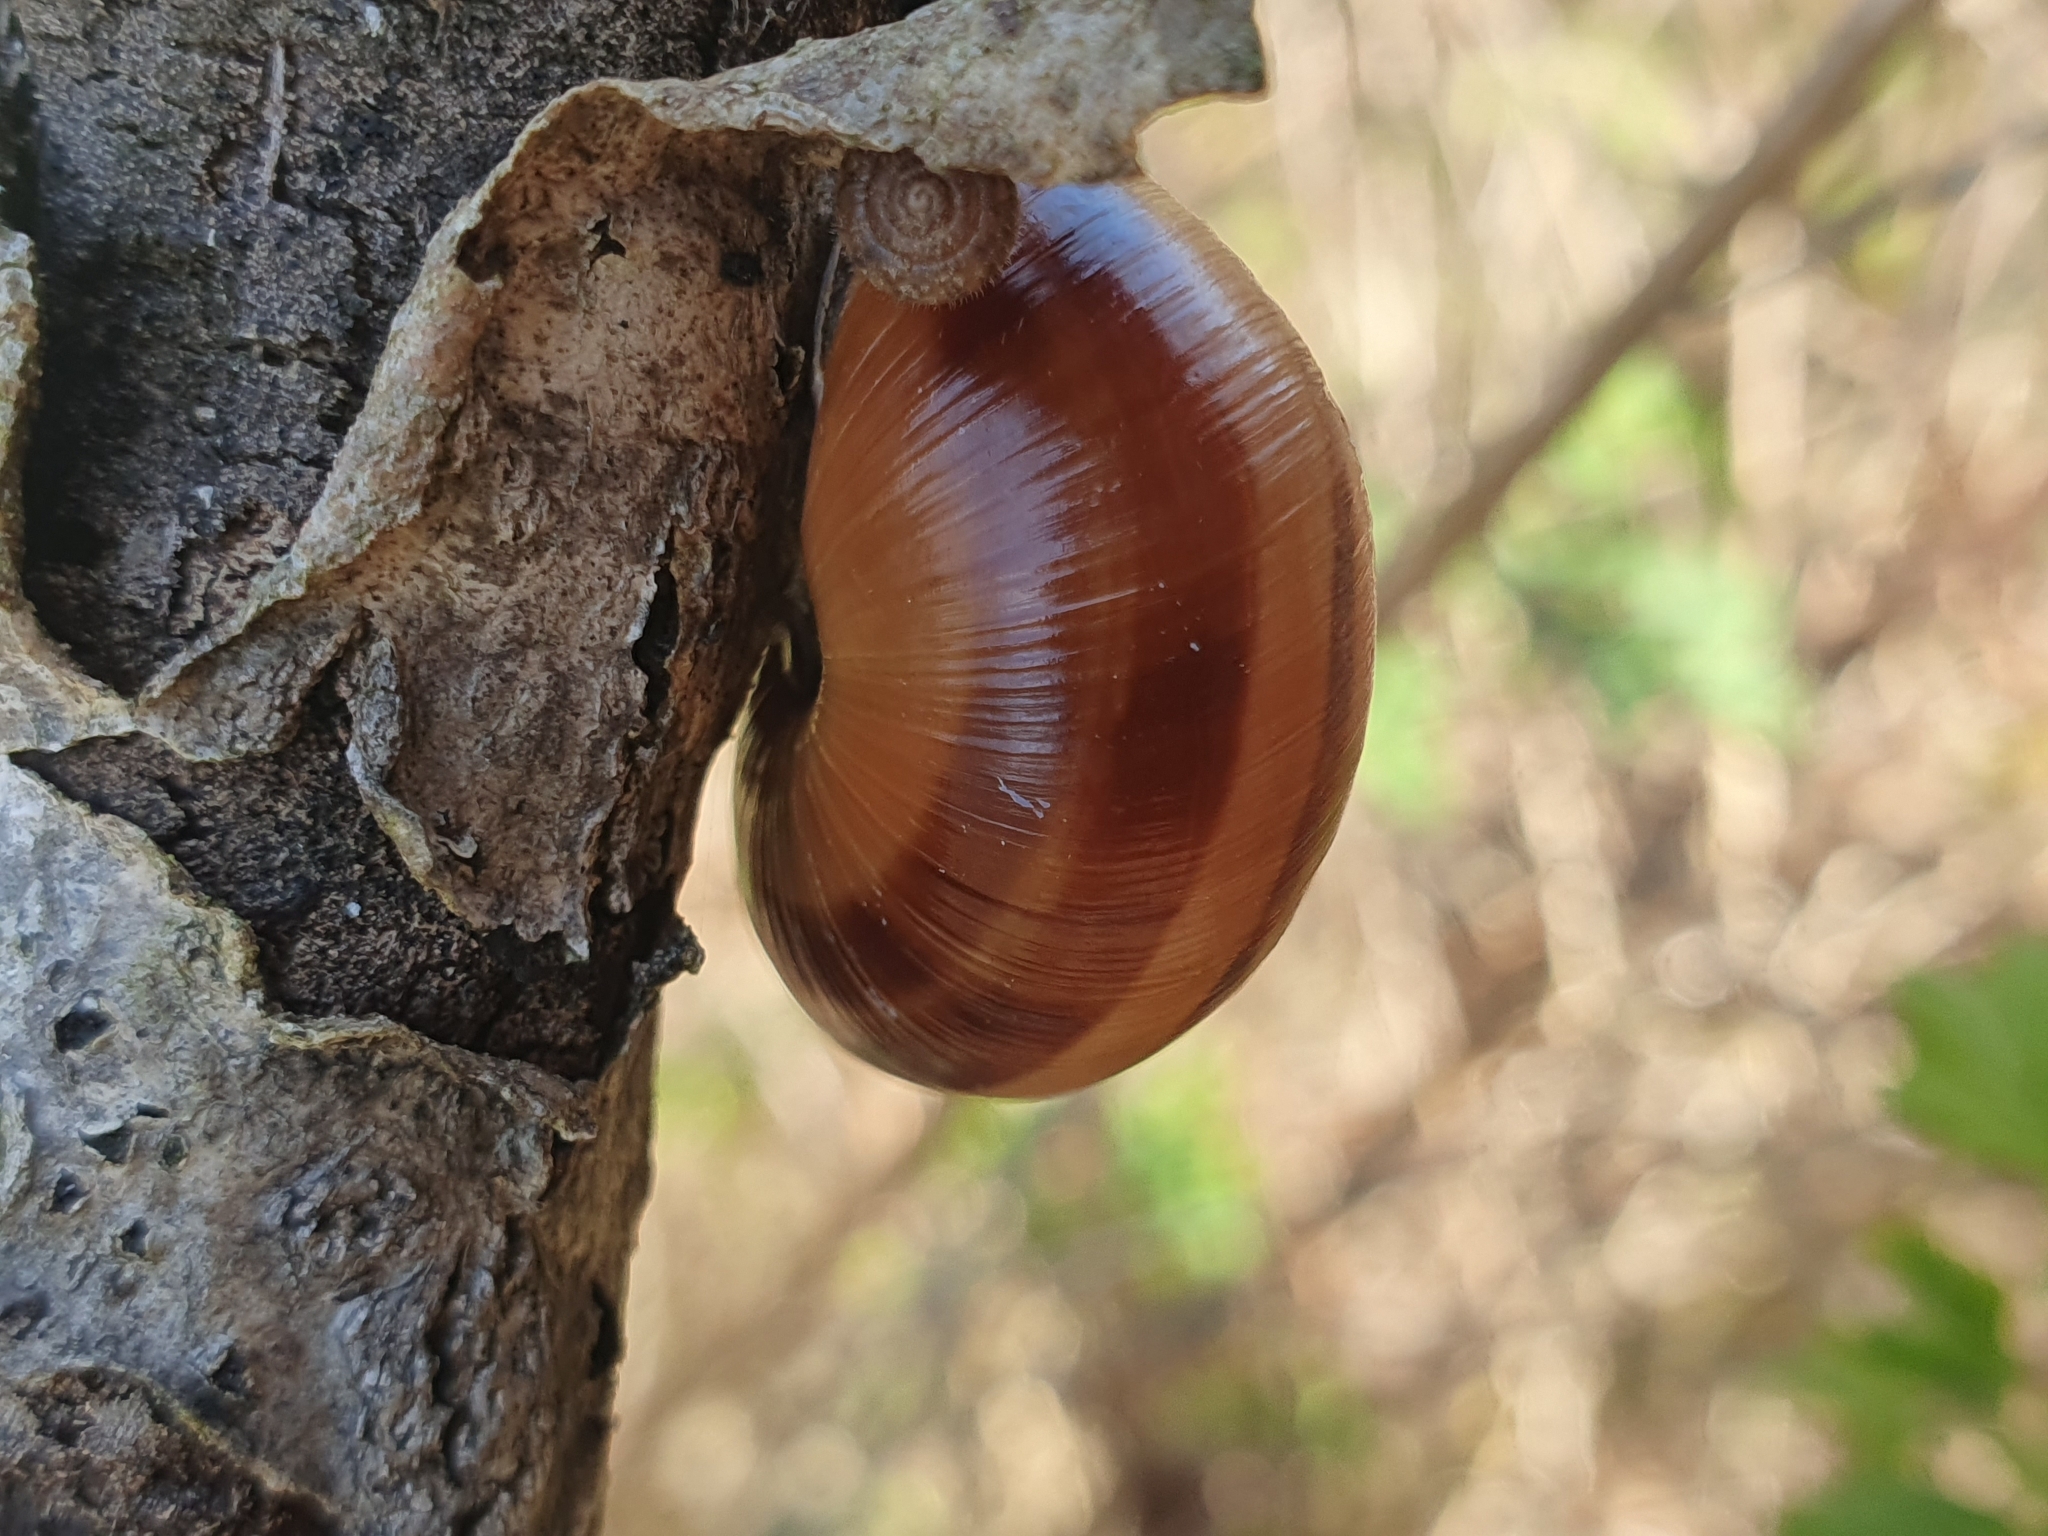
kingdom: Animalia
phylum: Mollusca
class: Gastropoda
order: Stylommatophora
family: Helicidae
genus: Cepaea
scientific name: Cepaea nemoralis
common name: Grovesnail
